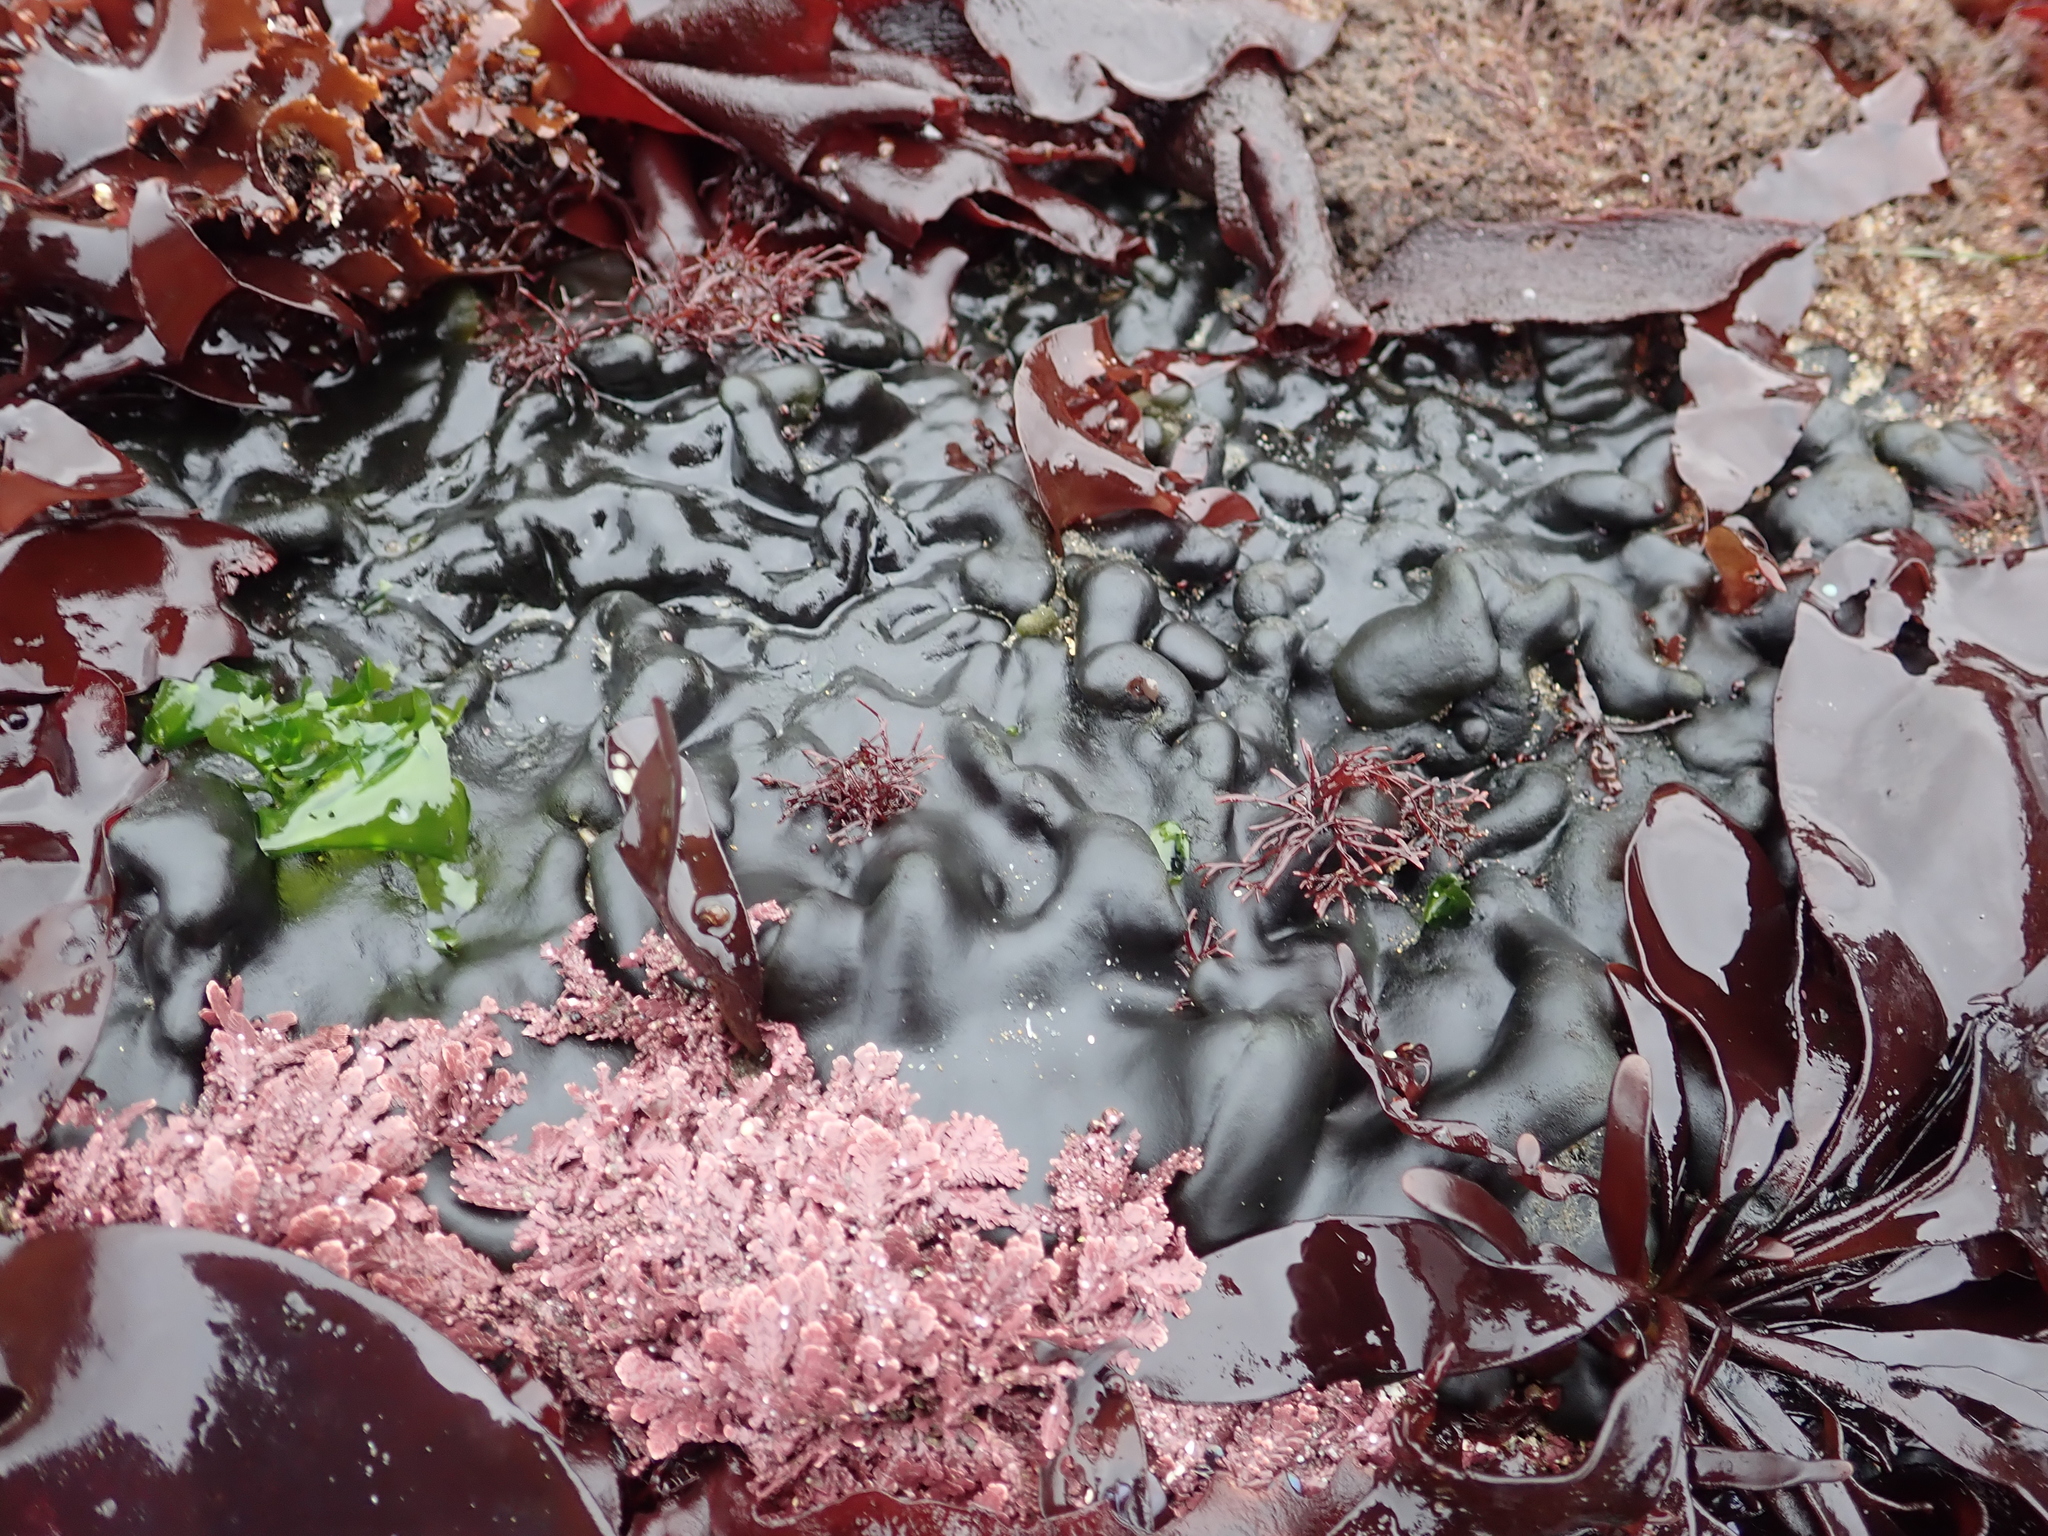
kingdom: Plantae
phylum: Chlorophyta
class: Ulvophyceae
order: Bryopsidales
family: Codiaceae
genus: Codium
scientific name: Codium setchellii
